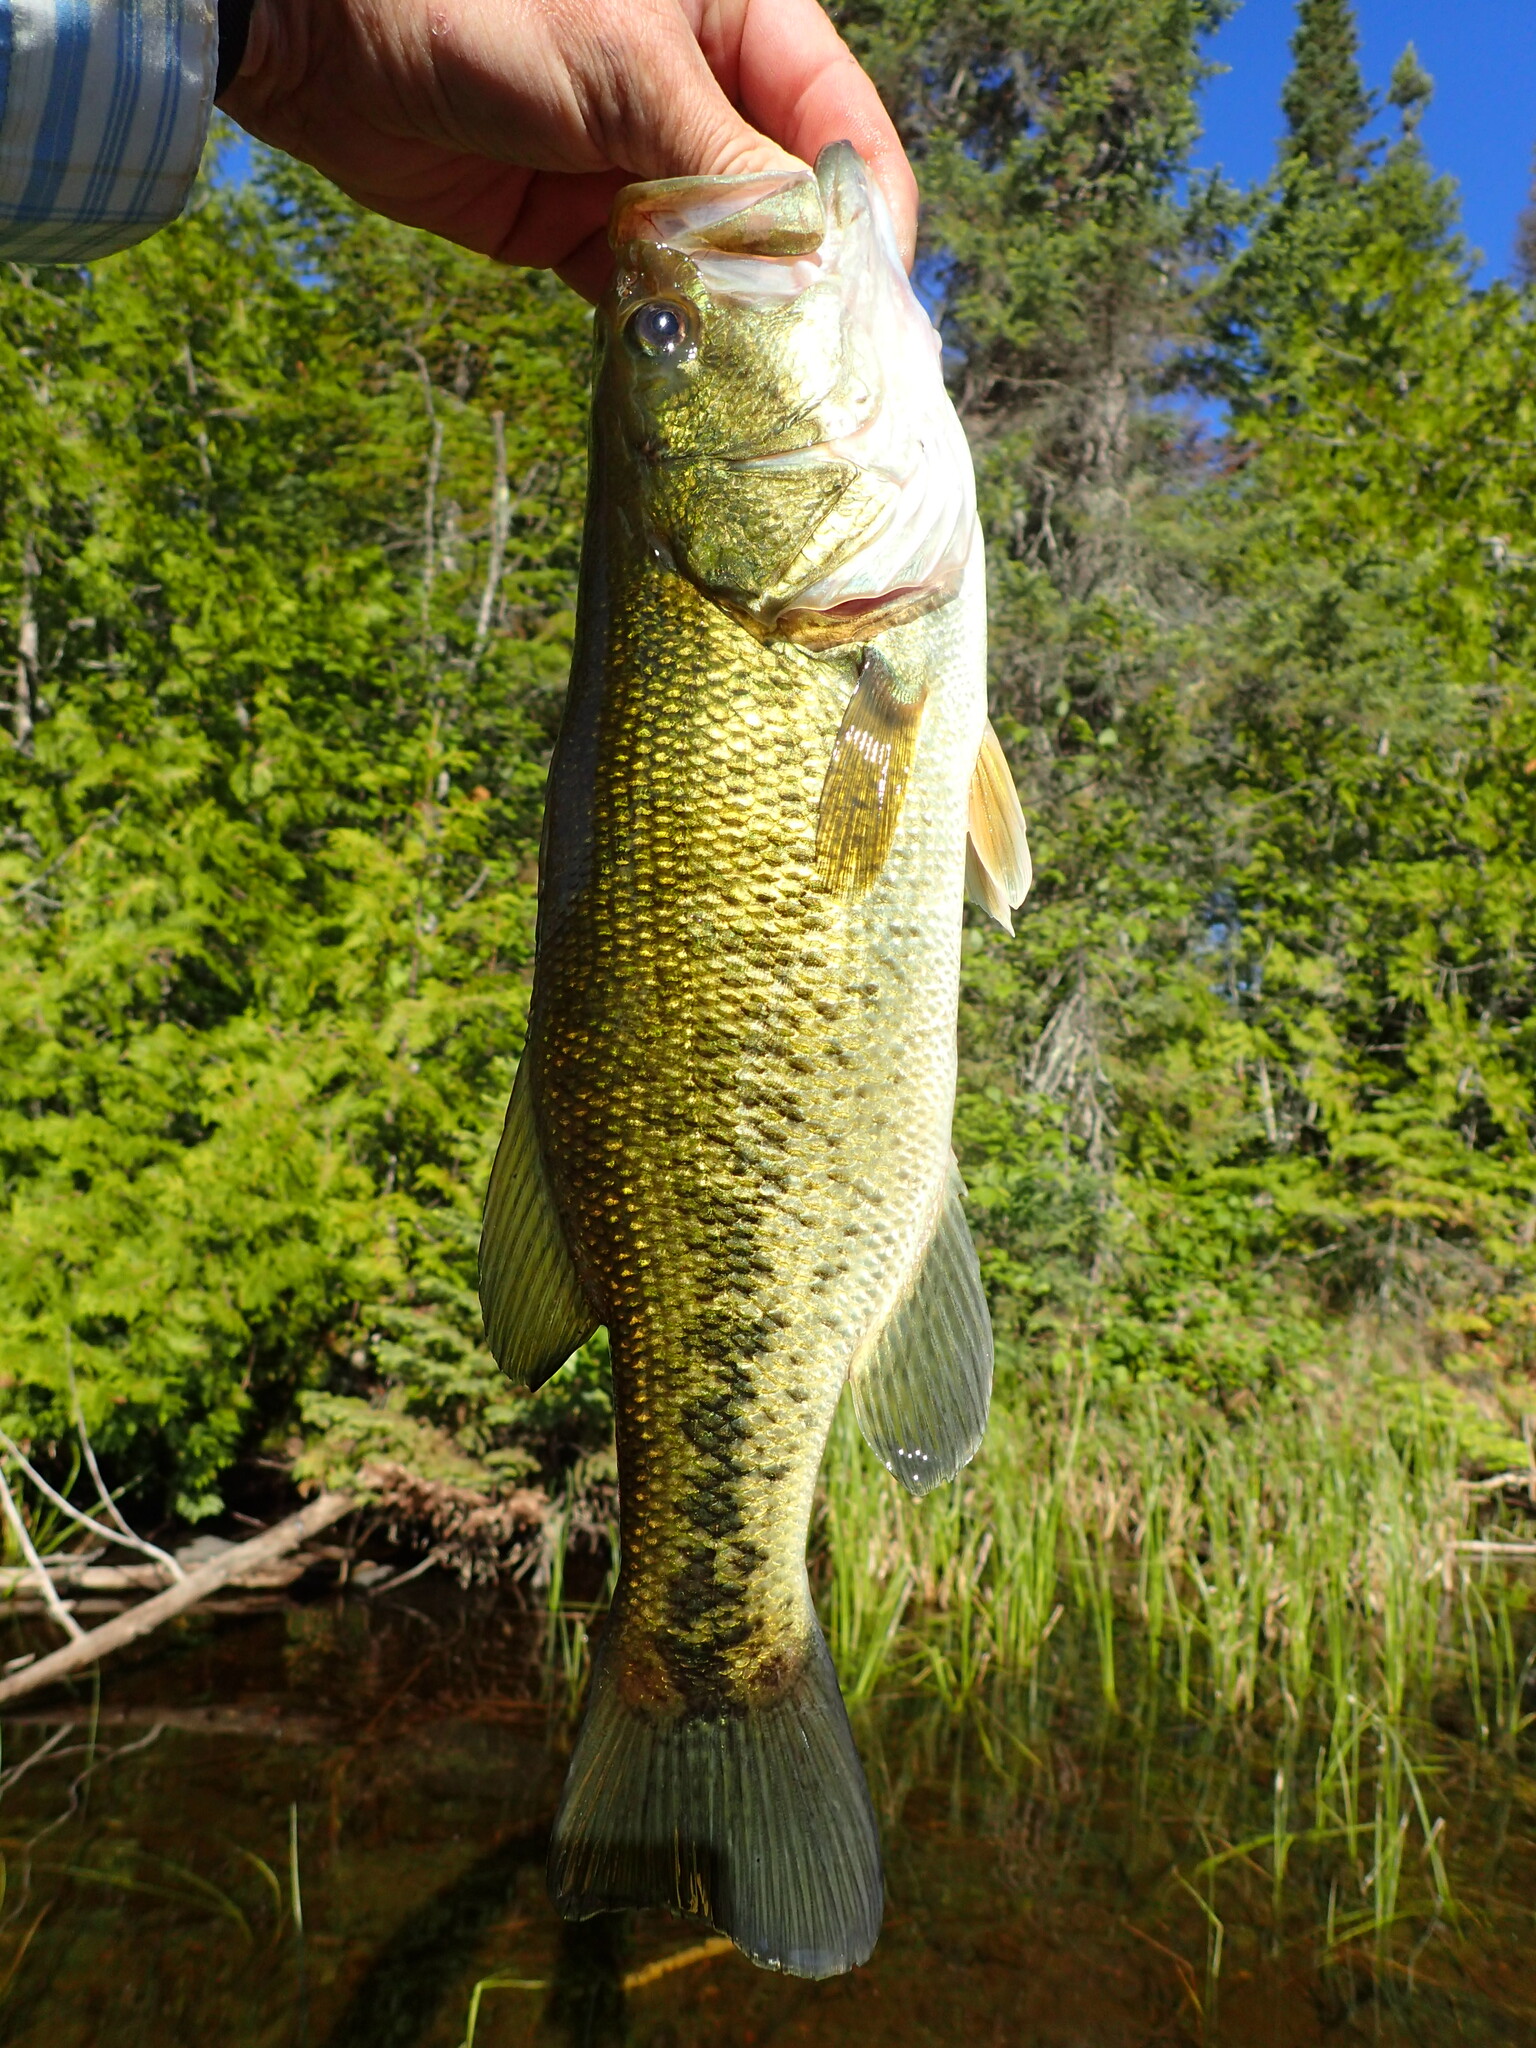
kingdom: Animalia
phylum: Chordata
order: Perciformes
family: Centrarchidae
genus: Micropterus
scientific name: Micropterus
